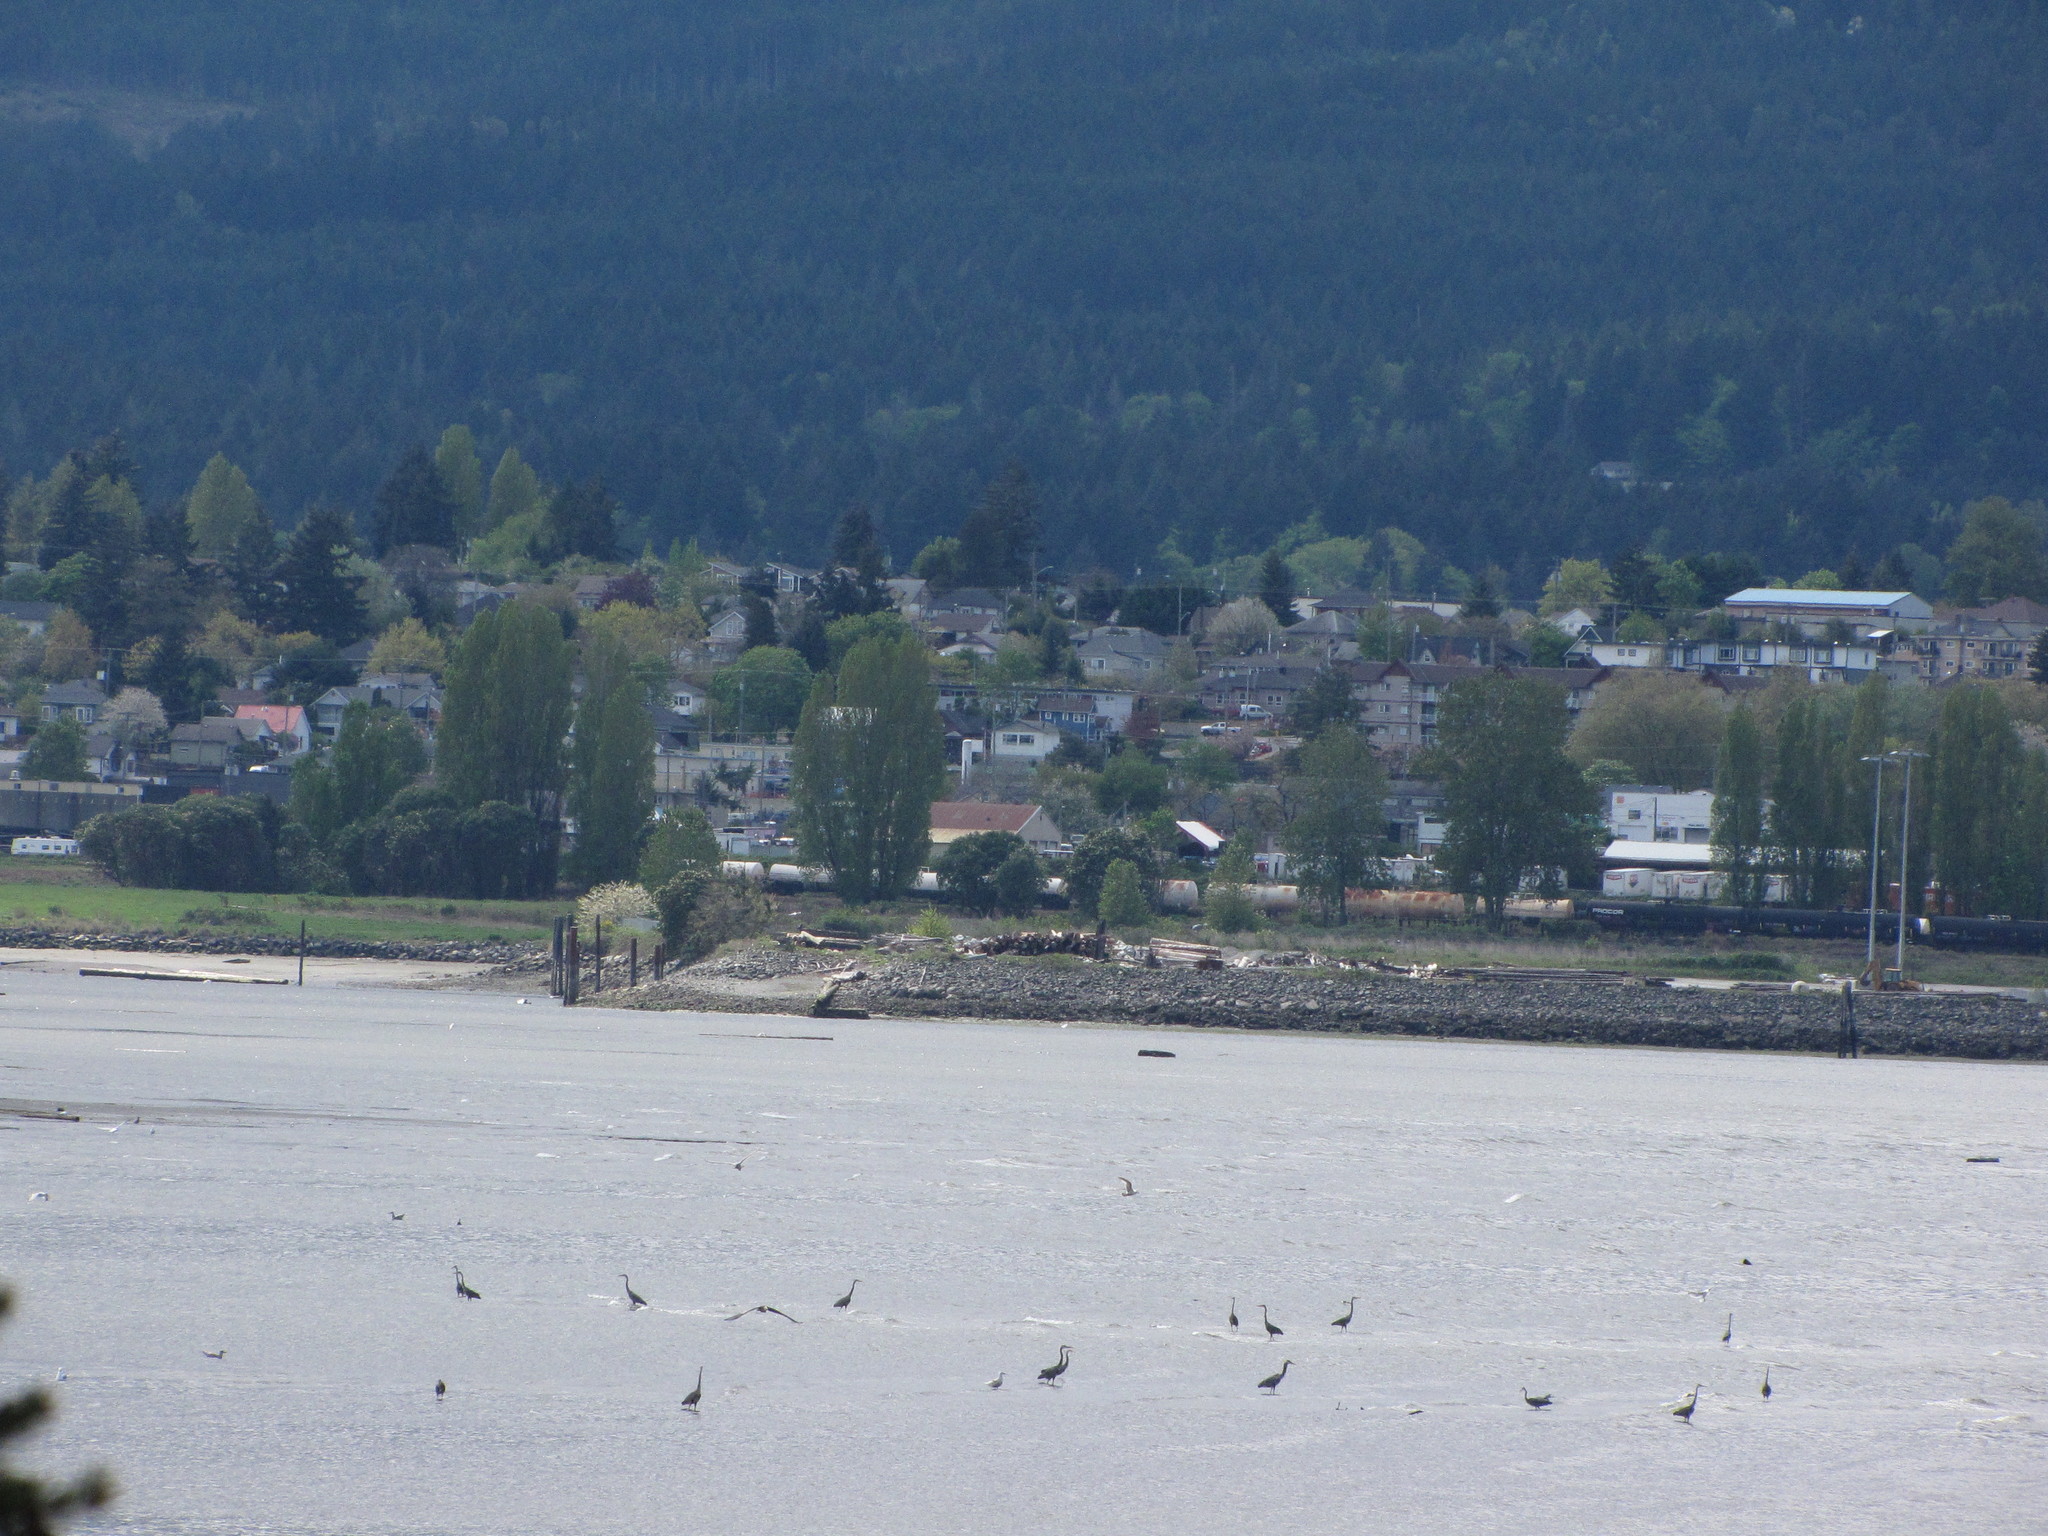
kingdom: Animalia
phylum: Chordata
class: Aves
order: Pelecaniformes
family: Ardeidae
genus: Ardea
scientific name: Ardea herodias
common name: Great blue heron
